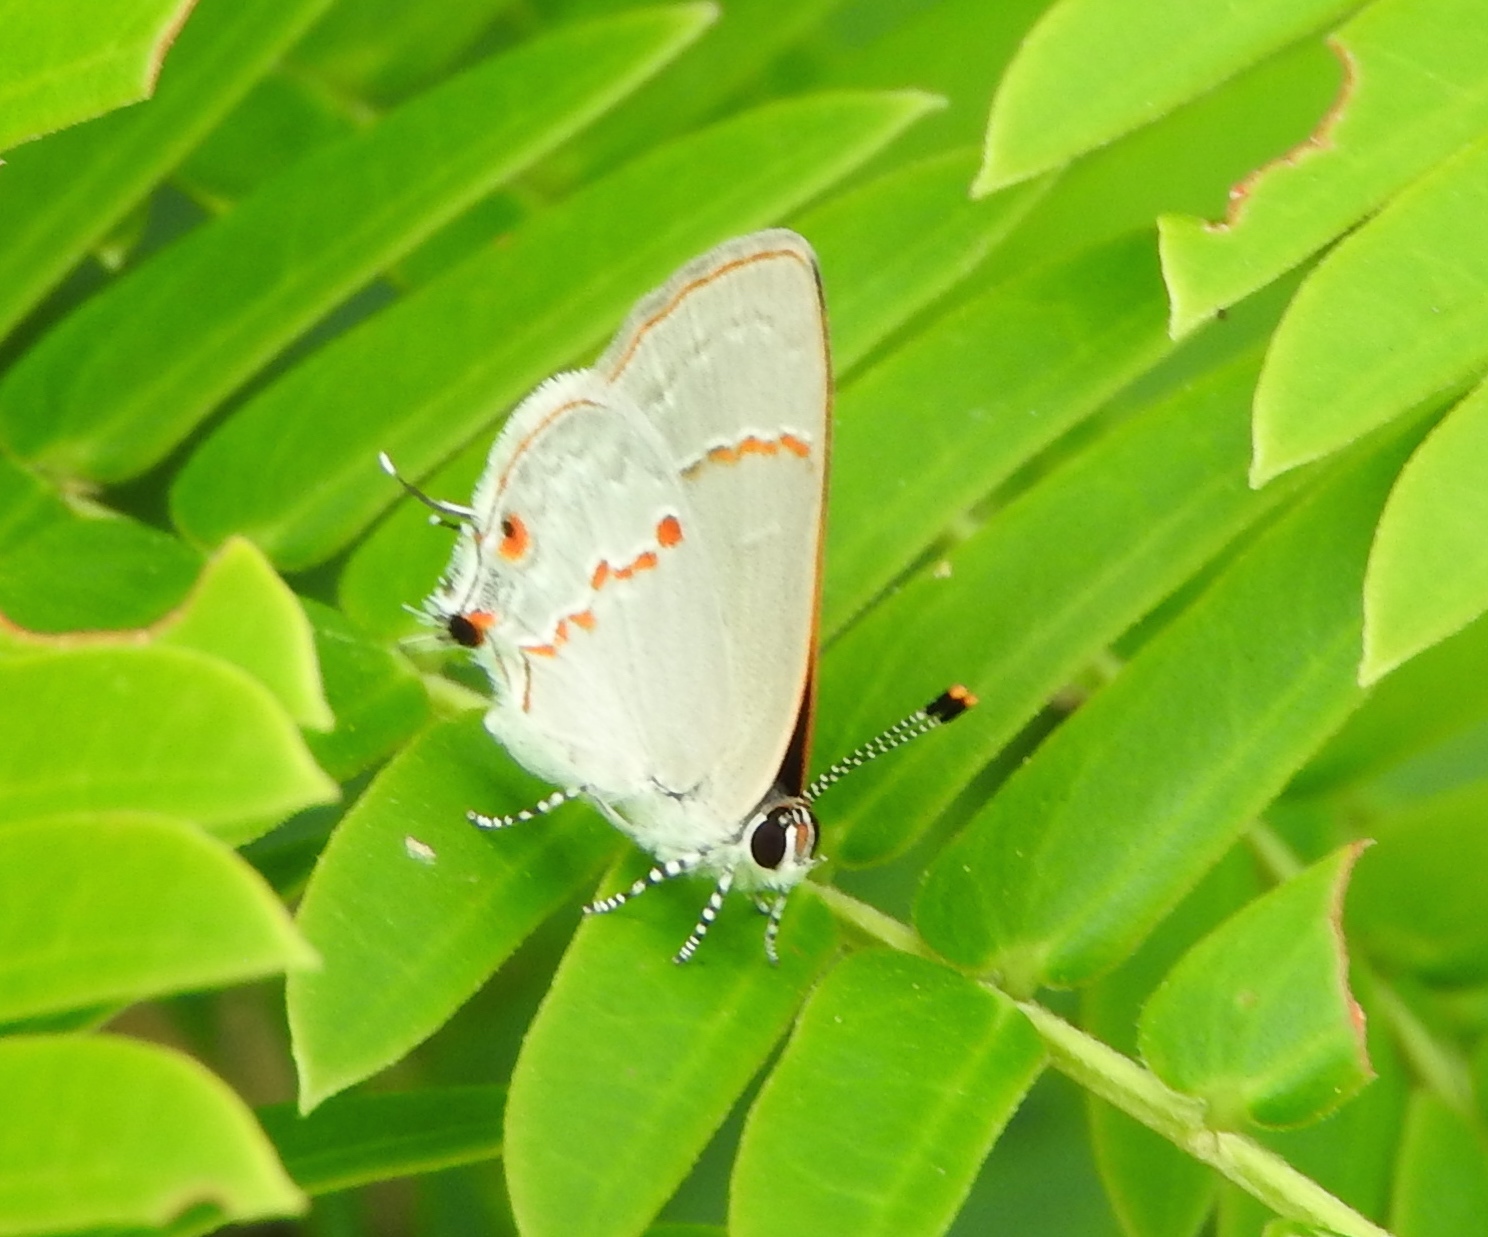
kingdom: Animalia
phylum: Arthropoda
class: Insecta
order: Lepidoptera
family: Lycaenidae
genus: Thecla
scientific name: Thecla azia
